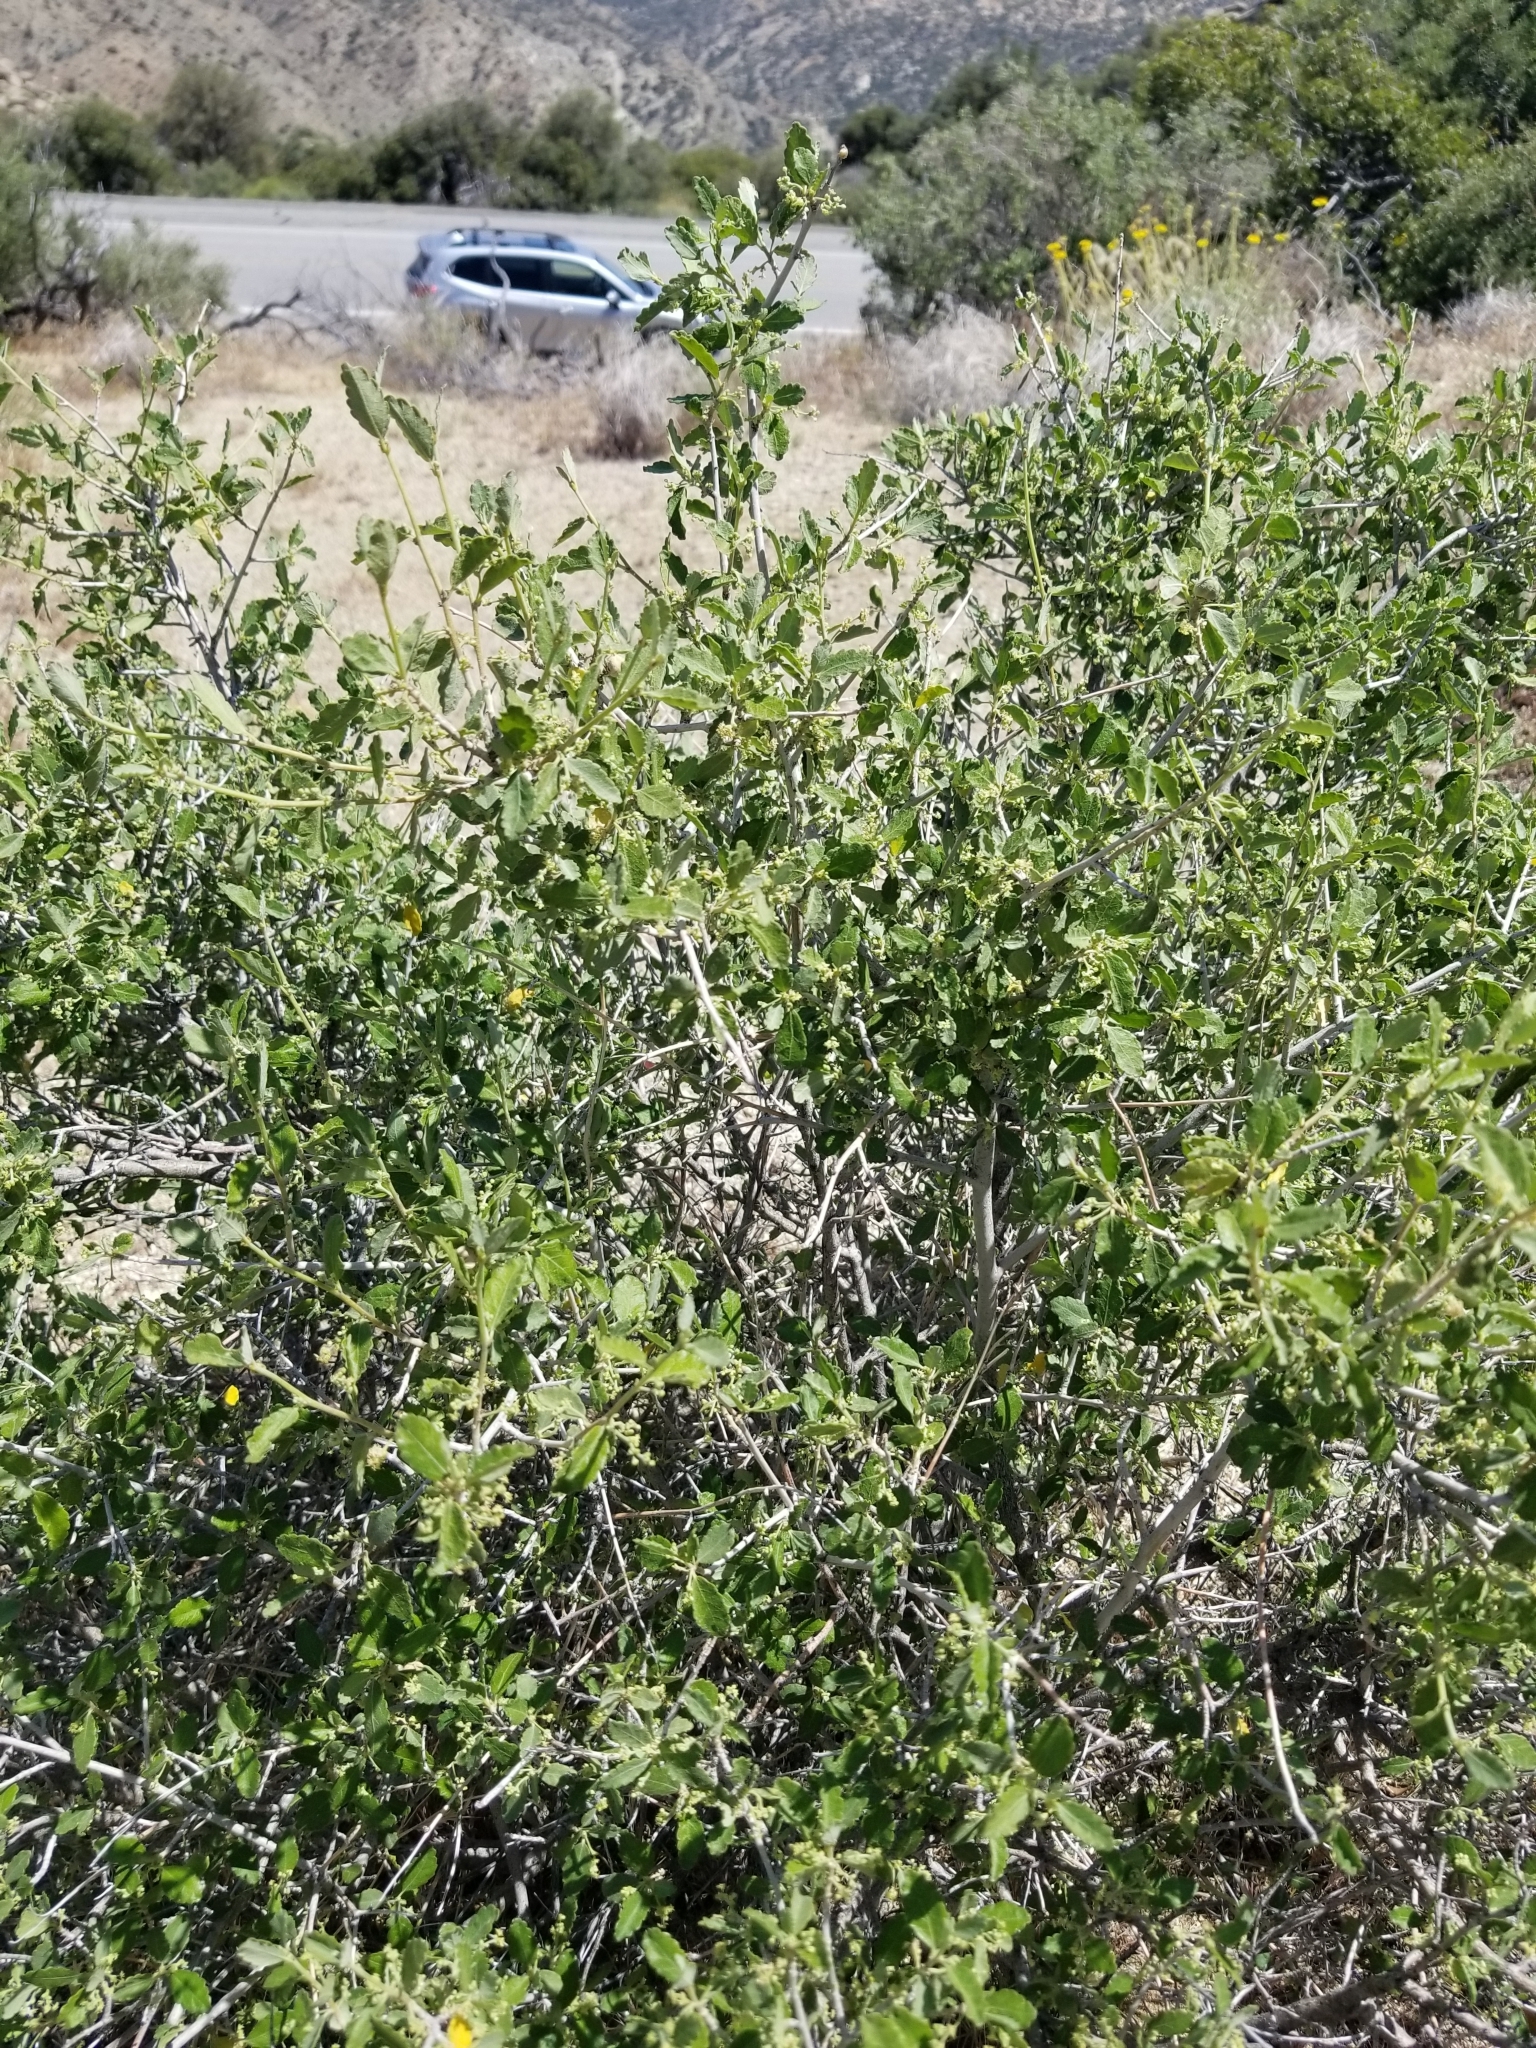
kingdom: Plantae
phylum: Tracheophyta
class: Magnoliopsida
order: Malpighiales
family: Euphorbiaceae
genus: Bernardia
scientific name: Bernardia incana
